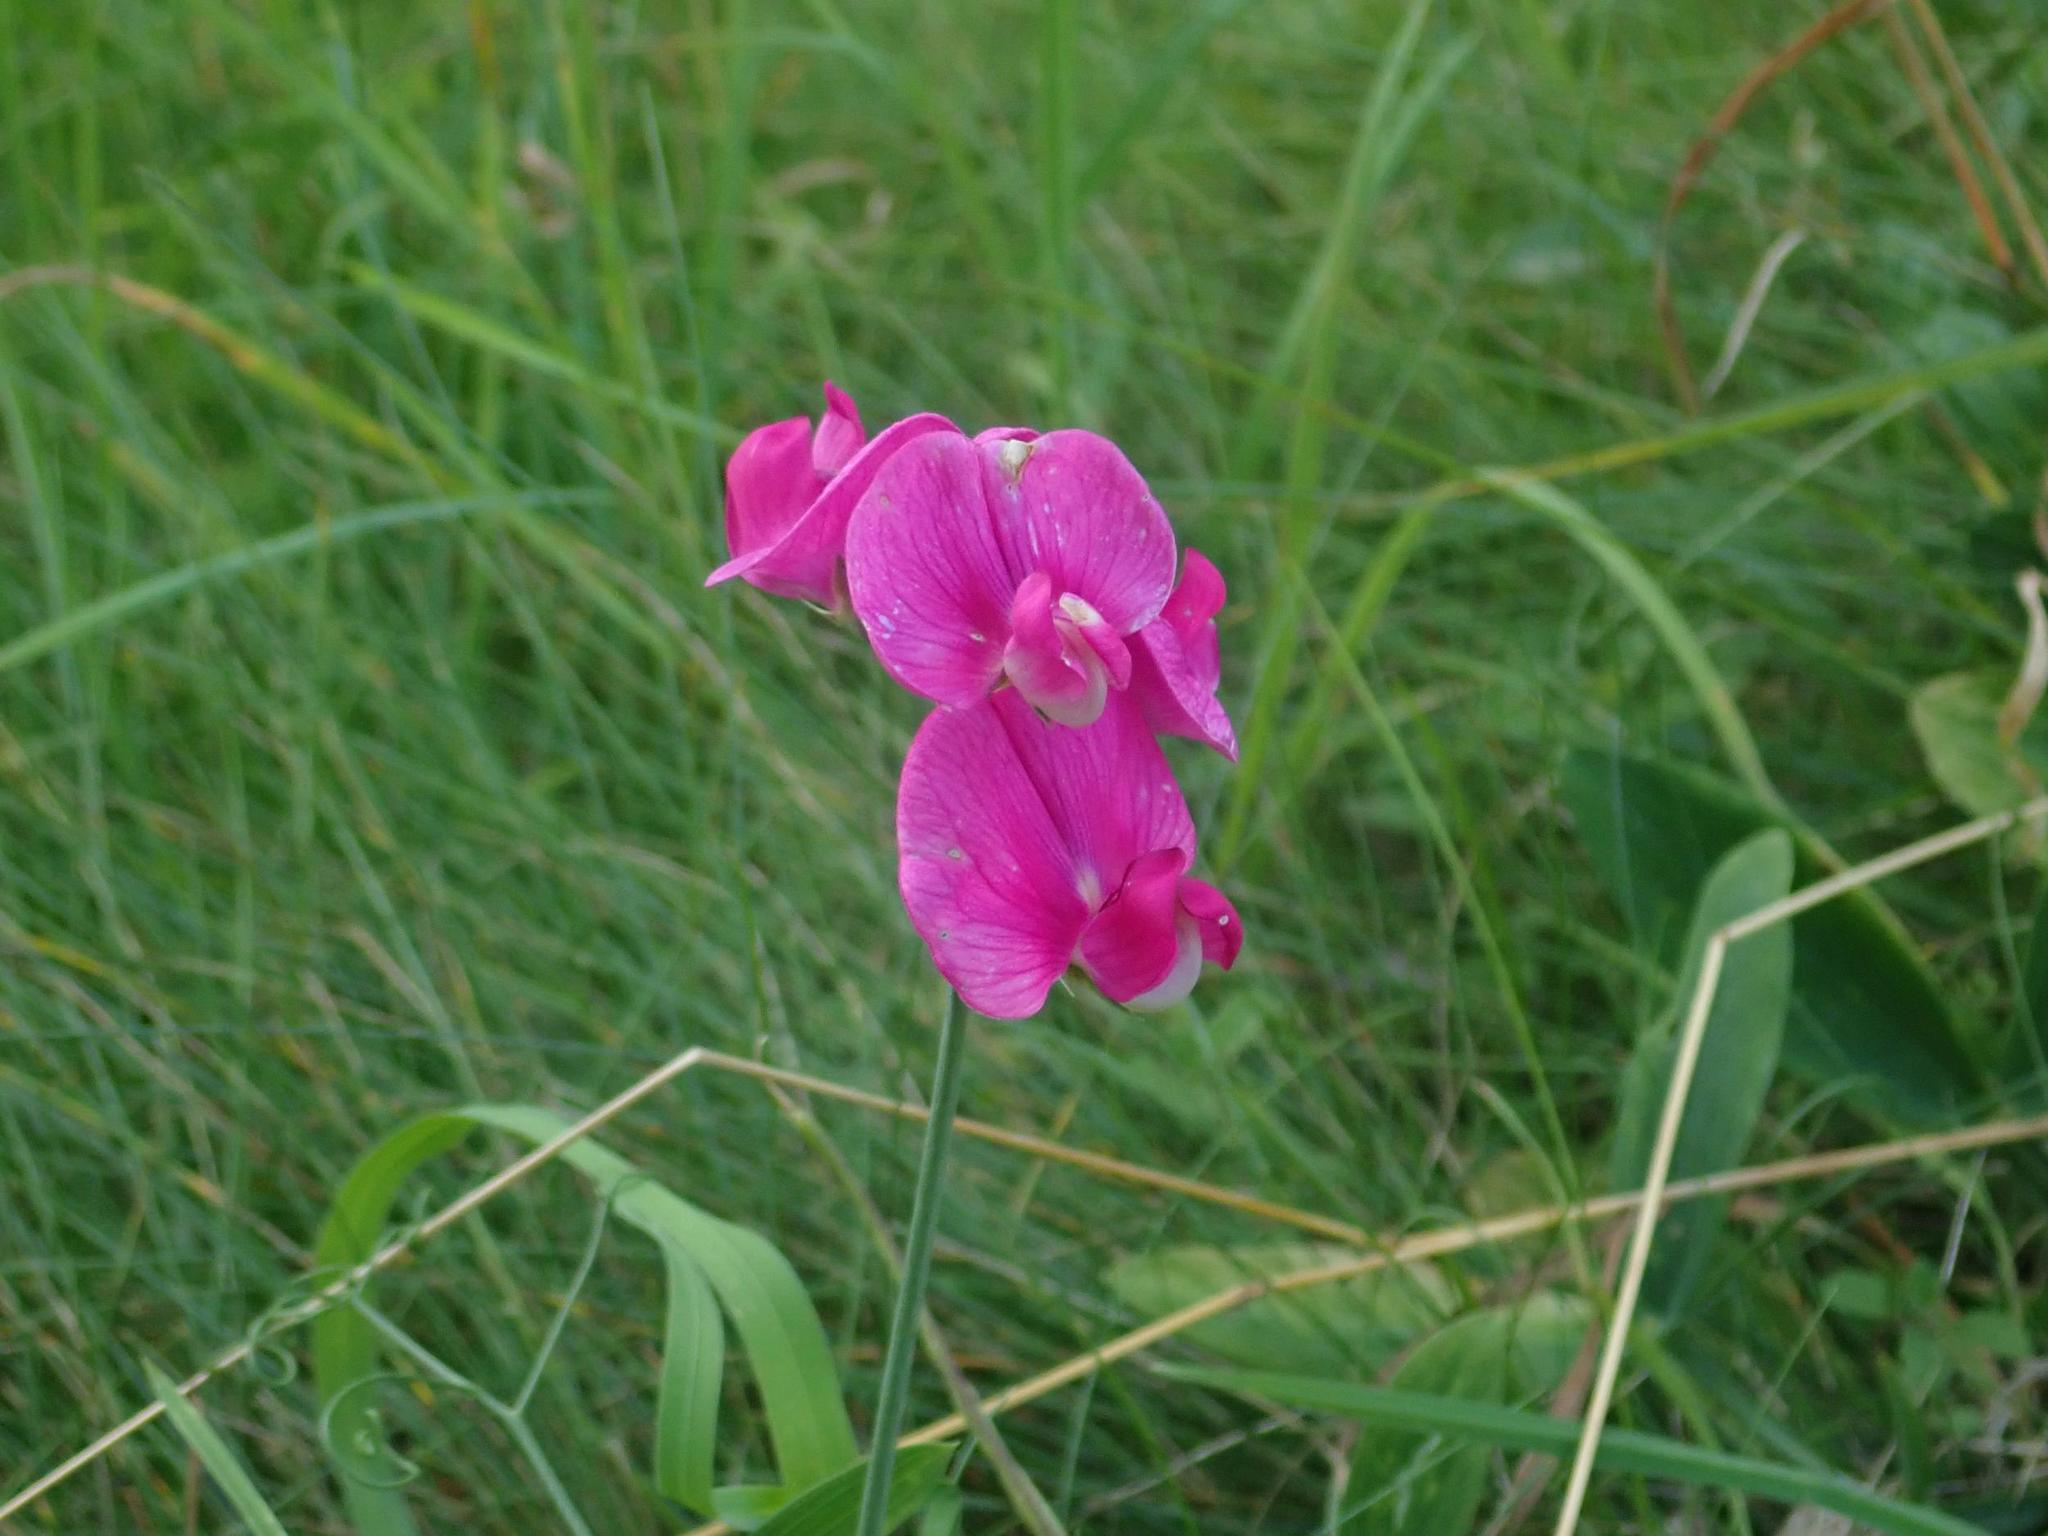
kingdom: Plantae
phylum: Tracheophyta
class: Magnoliopsida
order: Fabales
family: Fabaceae
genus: Lathyrus
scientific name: Lathyrus latifolius
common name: Perennial pea
